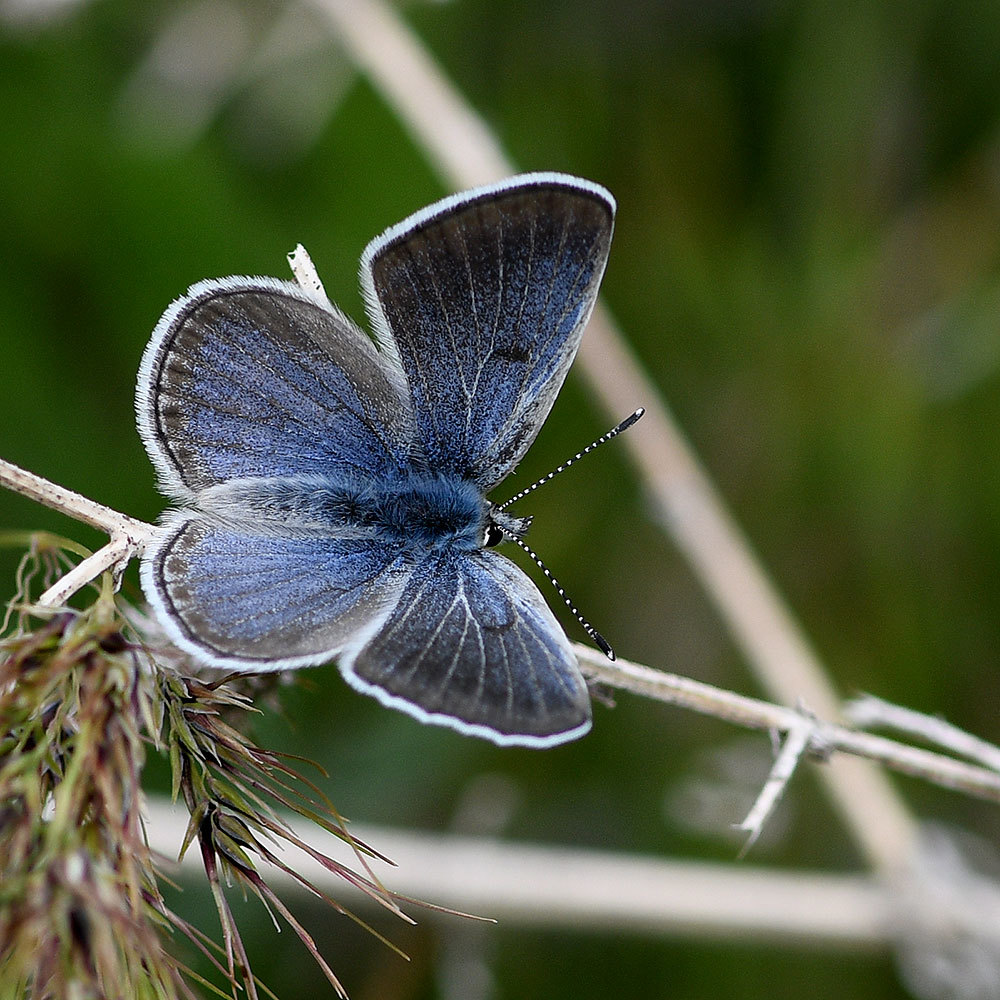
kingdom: Animalia
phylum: Arthropoda
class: Insecta
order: Lepidoptera
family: Lycaenidae
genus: Icaricia
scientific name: Icaricia icarioides
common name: Boisduval's blue
